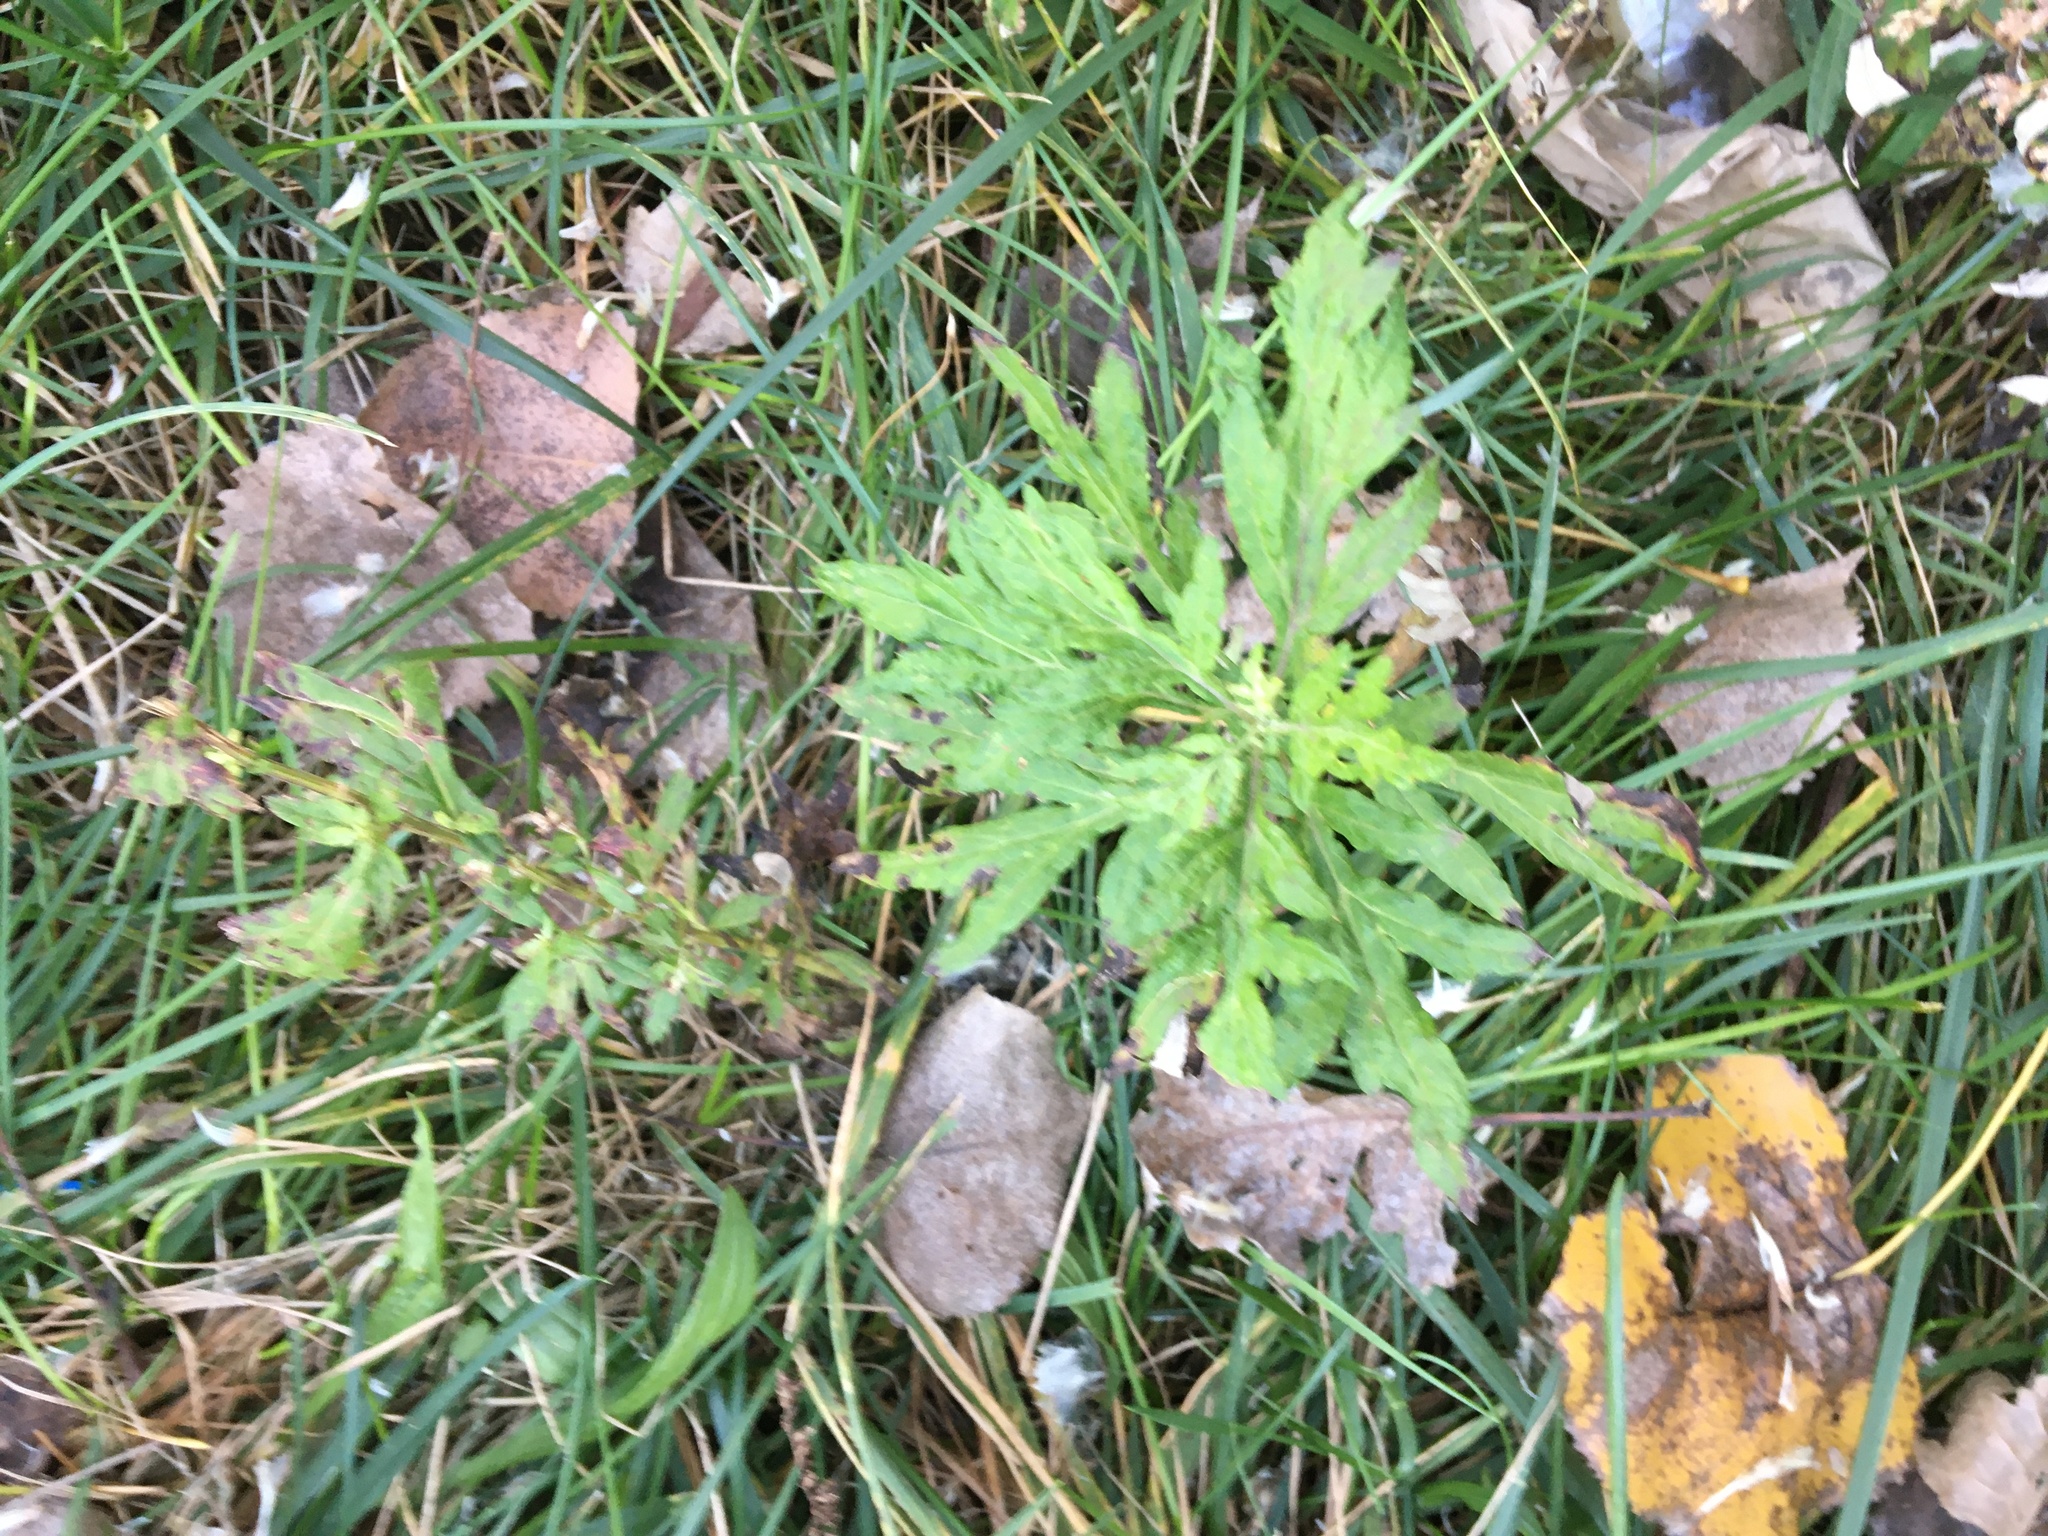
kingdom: Plantae
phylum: Tracheophyta
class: Magnoliopsida
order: Asterales
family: Asteraceae
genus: Artemisia
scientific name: Artemisia vulgaris
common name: Mugwort
